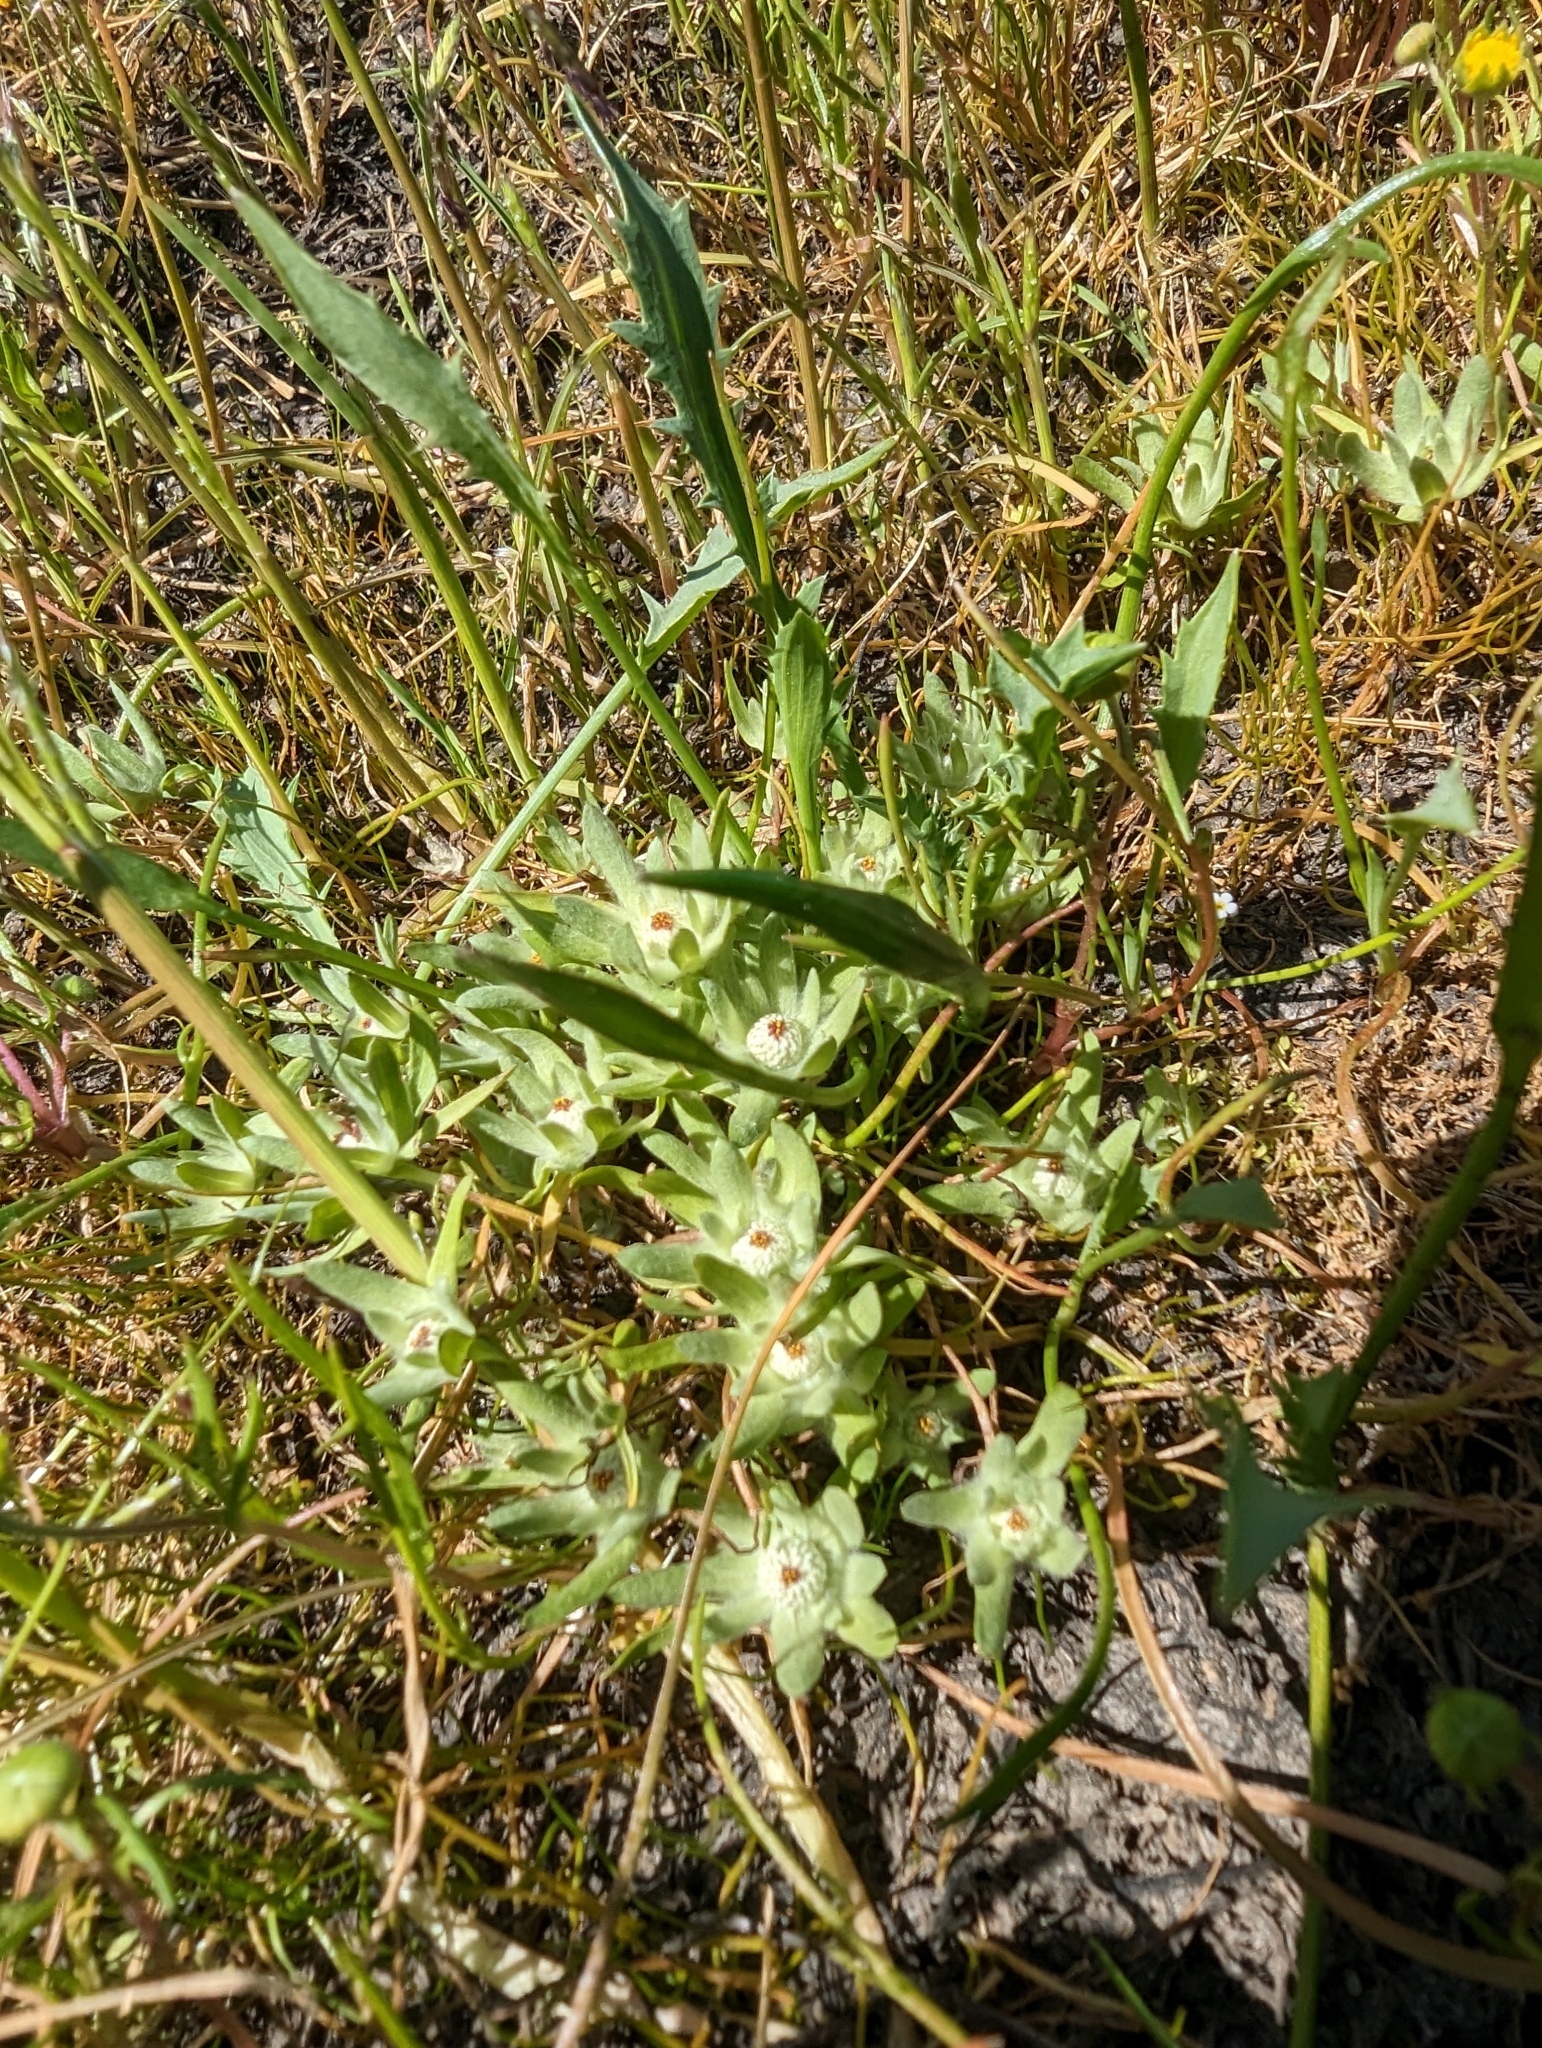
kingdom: Plantae
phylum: Tracheophyta
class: Magnoliopsida
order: Asterales
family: Asteraceae
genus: Psilocarphus
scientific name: Psilocarphus oregonus
